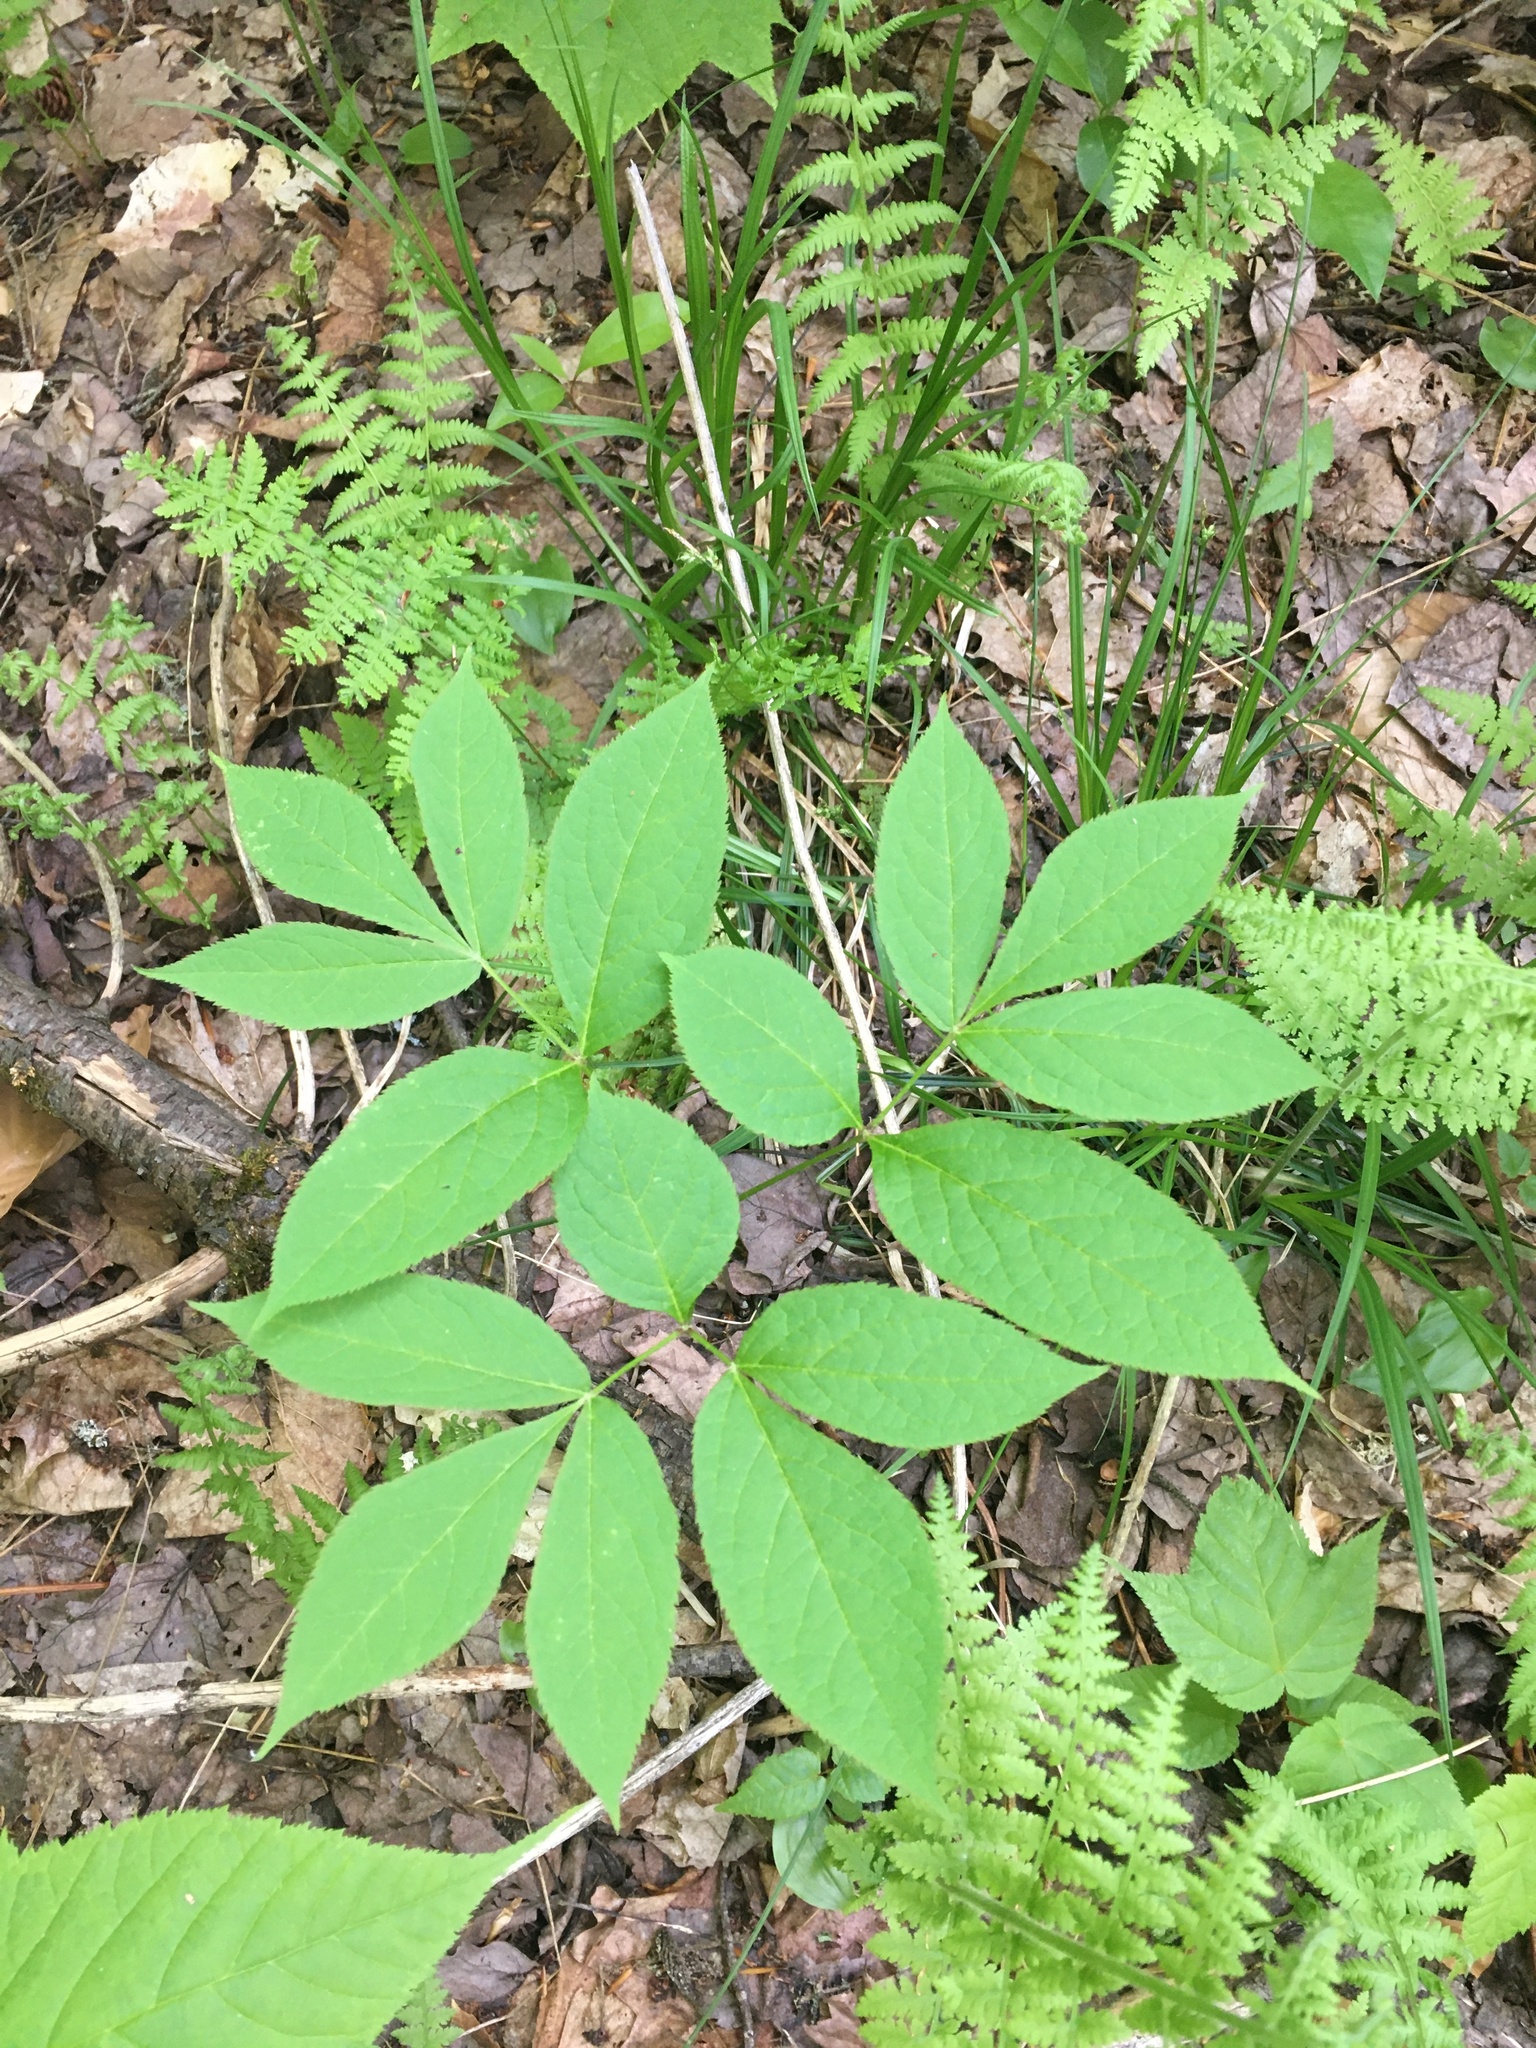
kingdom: Plantae
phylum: Tracheophyta
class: Magnoliopsida
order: Apiales
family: Araliaceae
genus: Aralia
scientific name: Aralia nudicaulis
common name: Wild sarsaparilla
